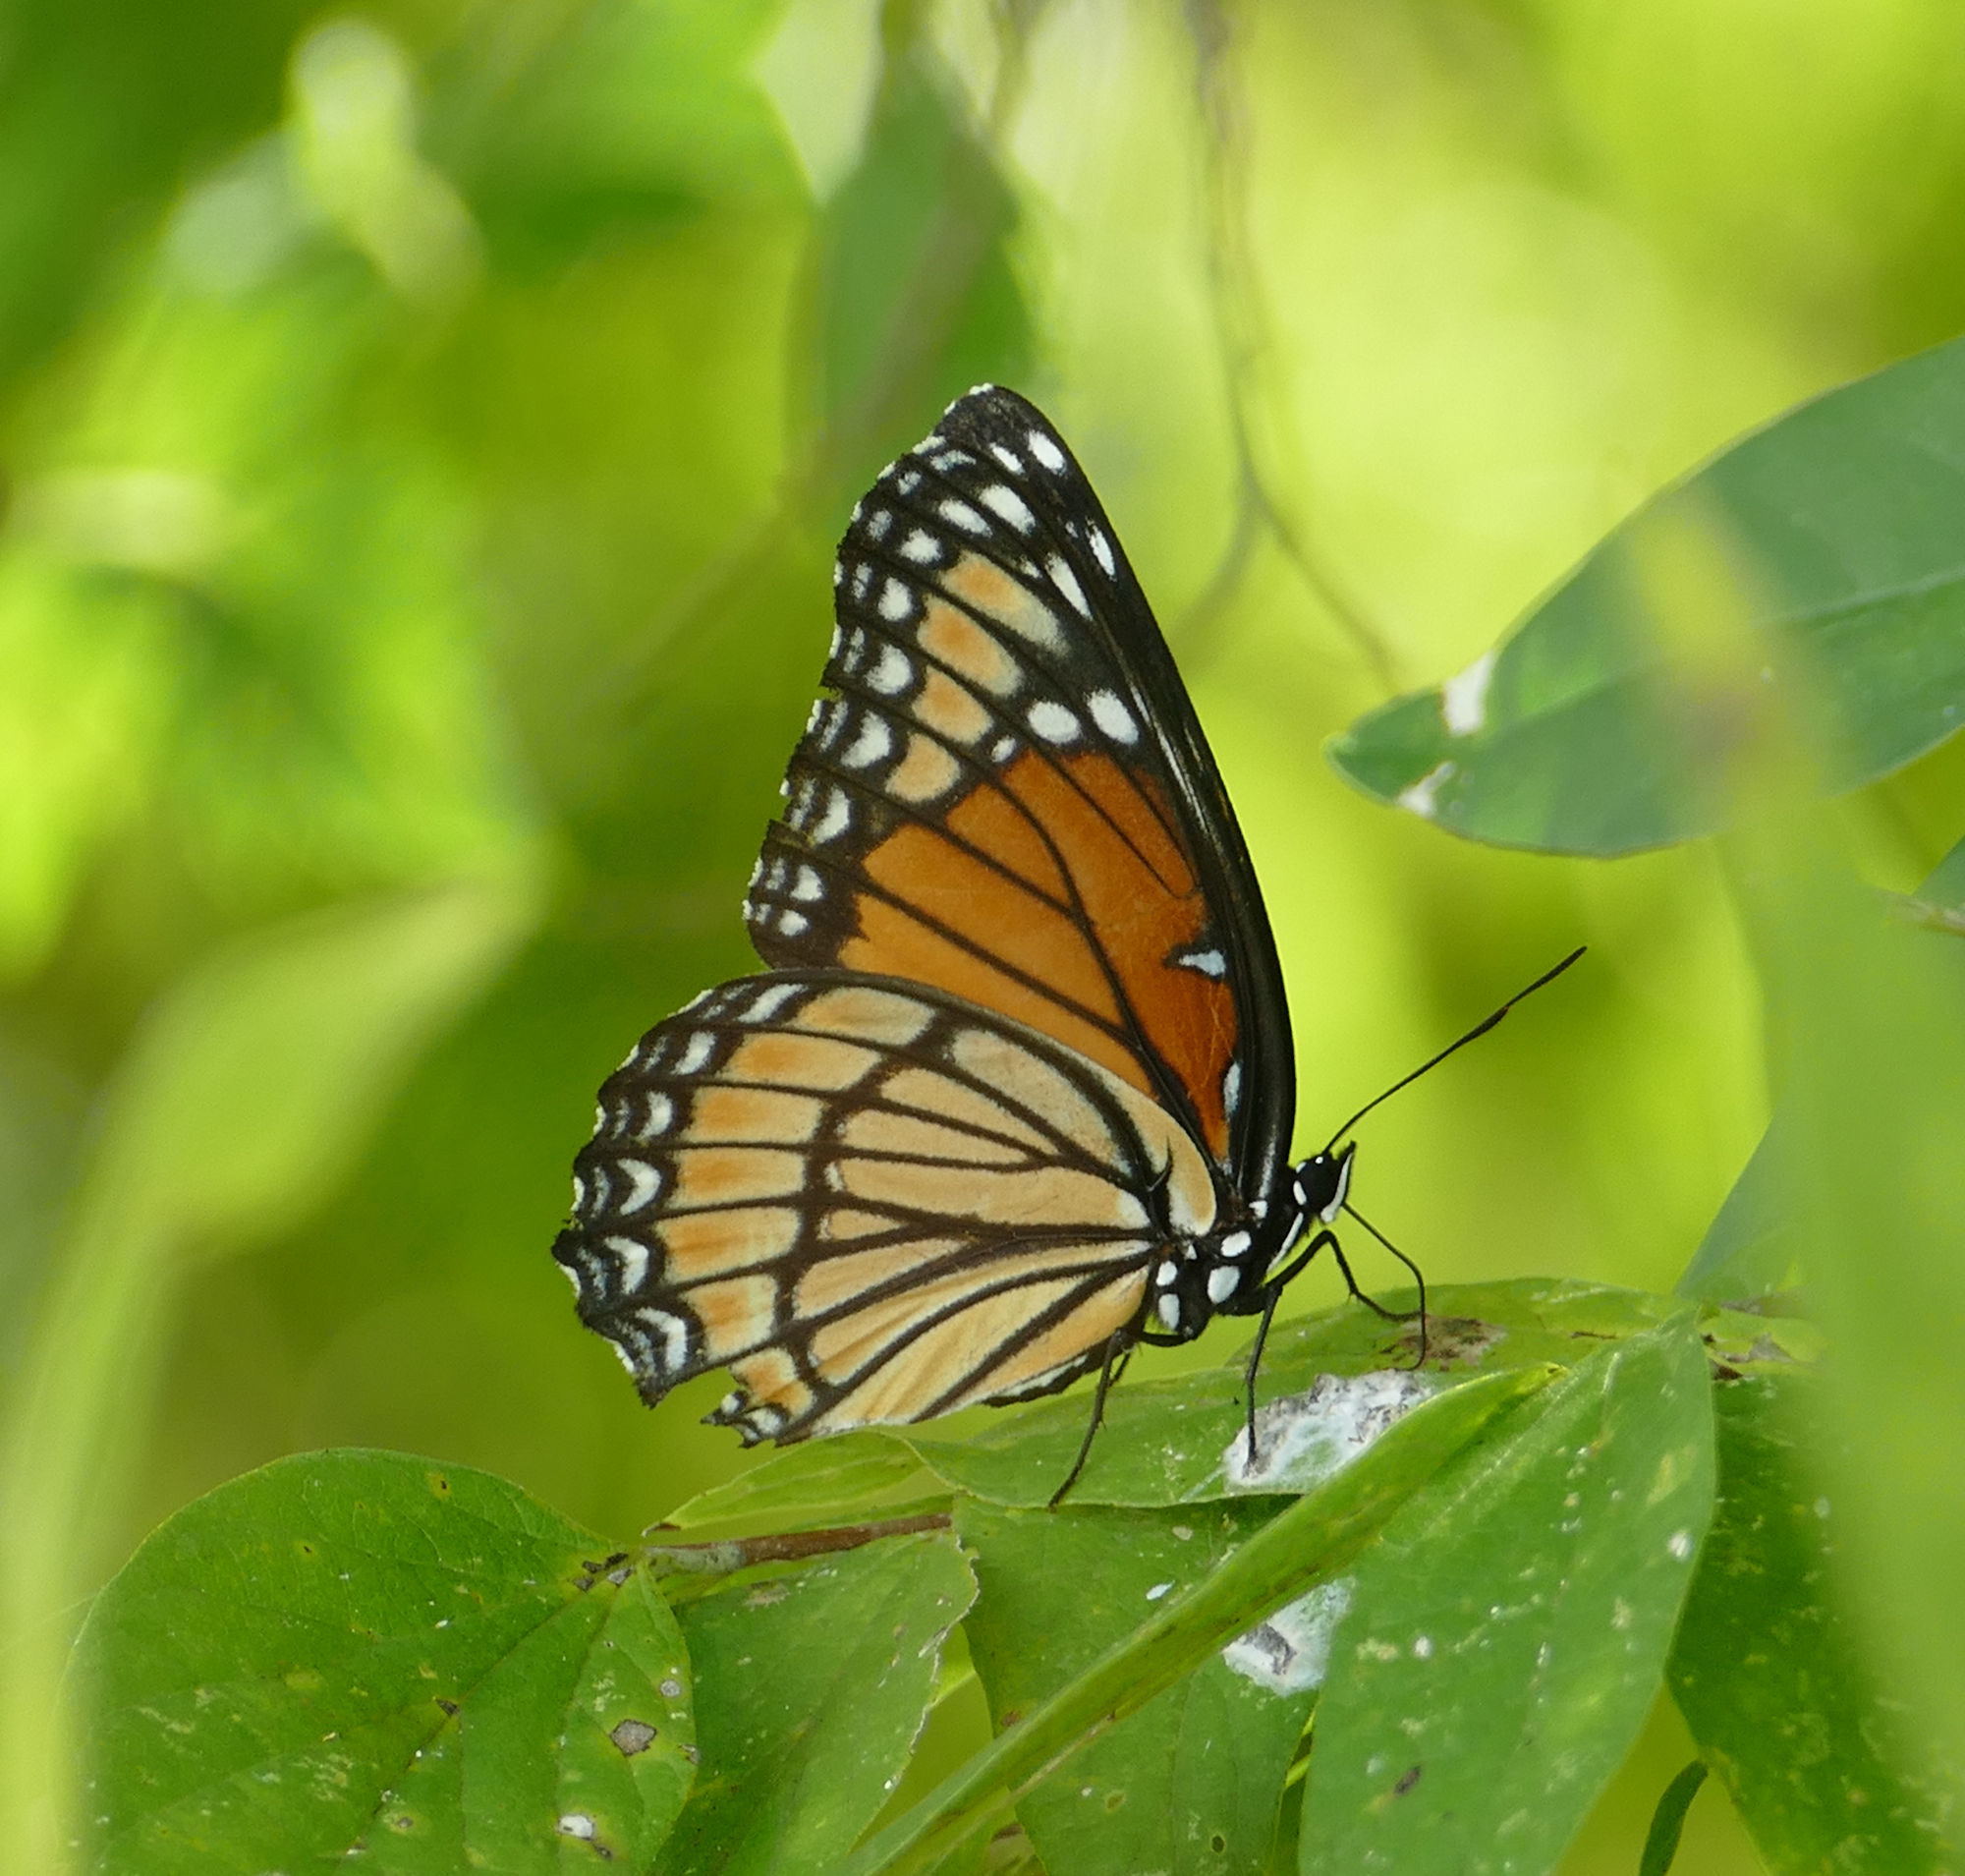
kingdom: Animalia
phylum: Arthropoda
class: Insecta
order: Lepidoptera
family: Nymphalidae
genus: Limenitis
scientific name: Limenitis archippus
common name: Viceroy
